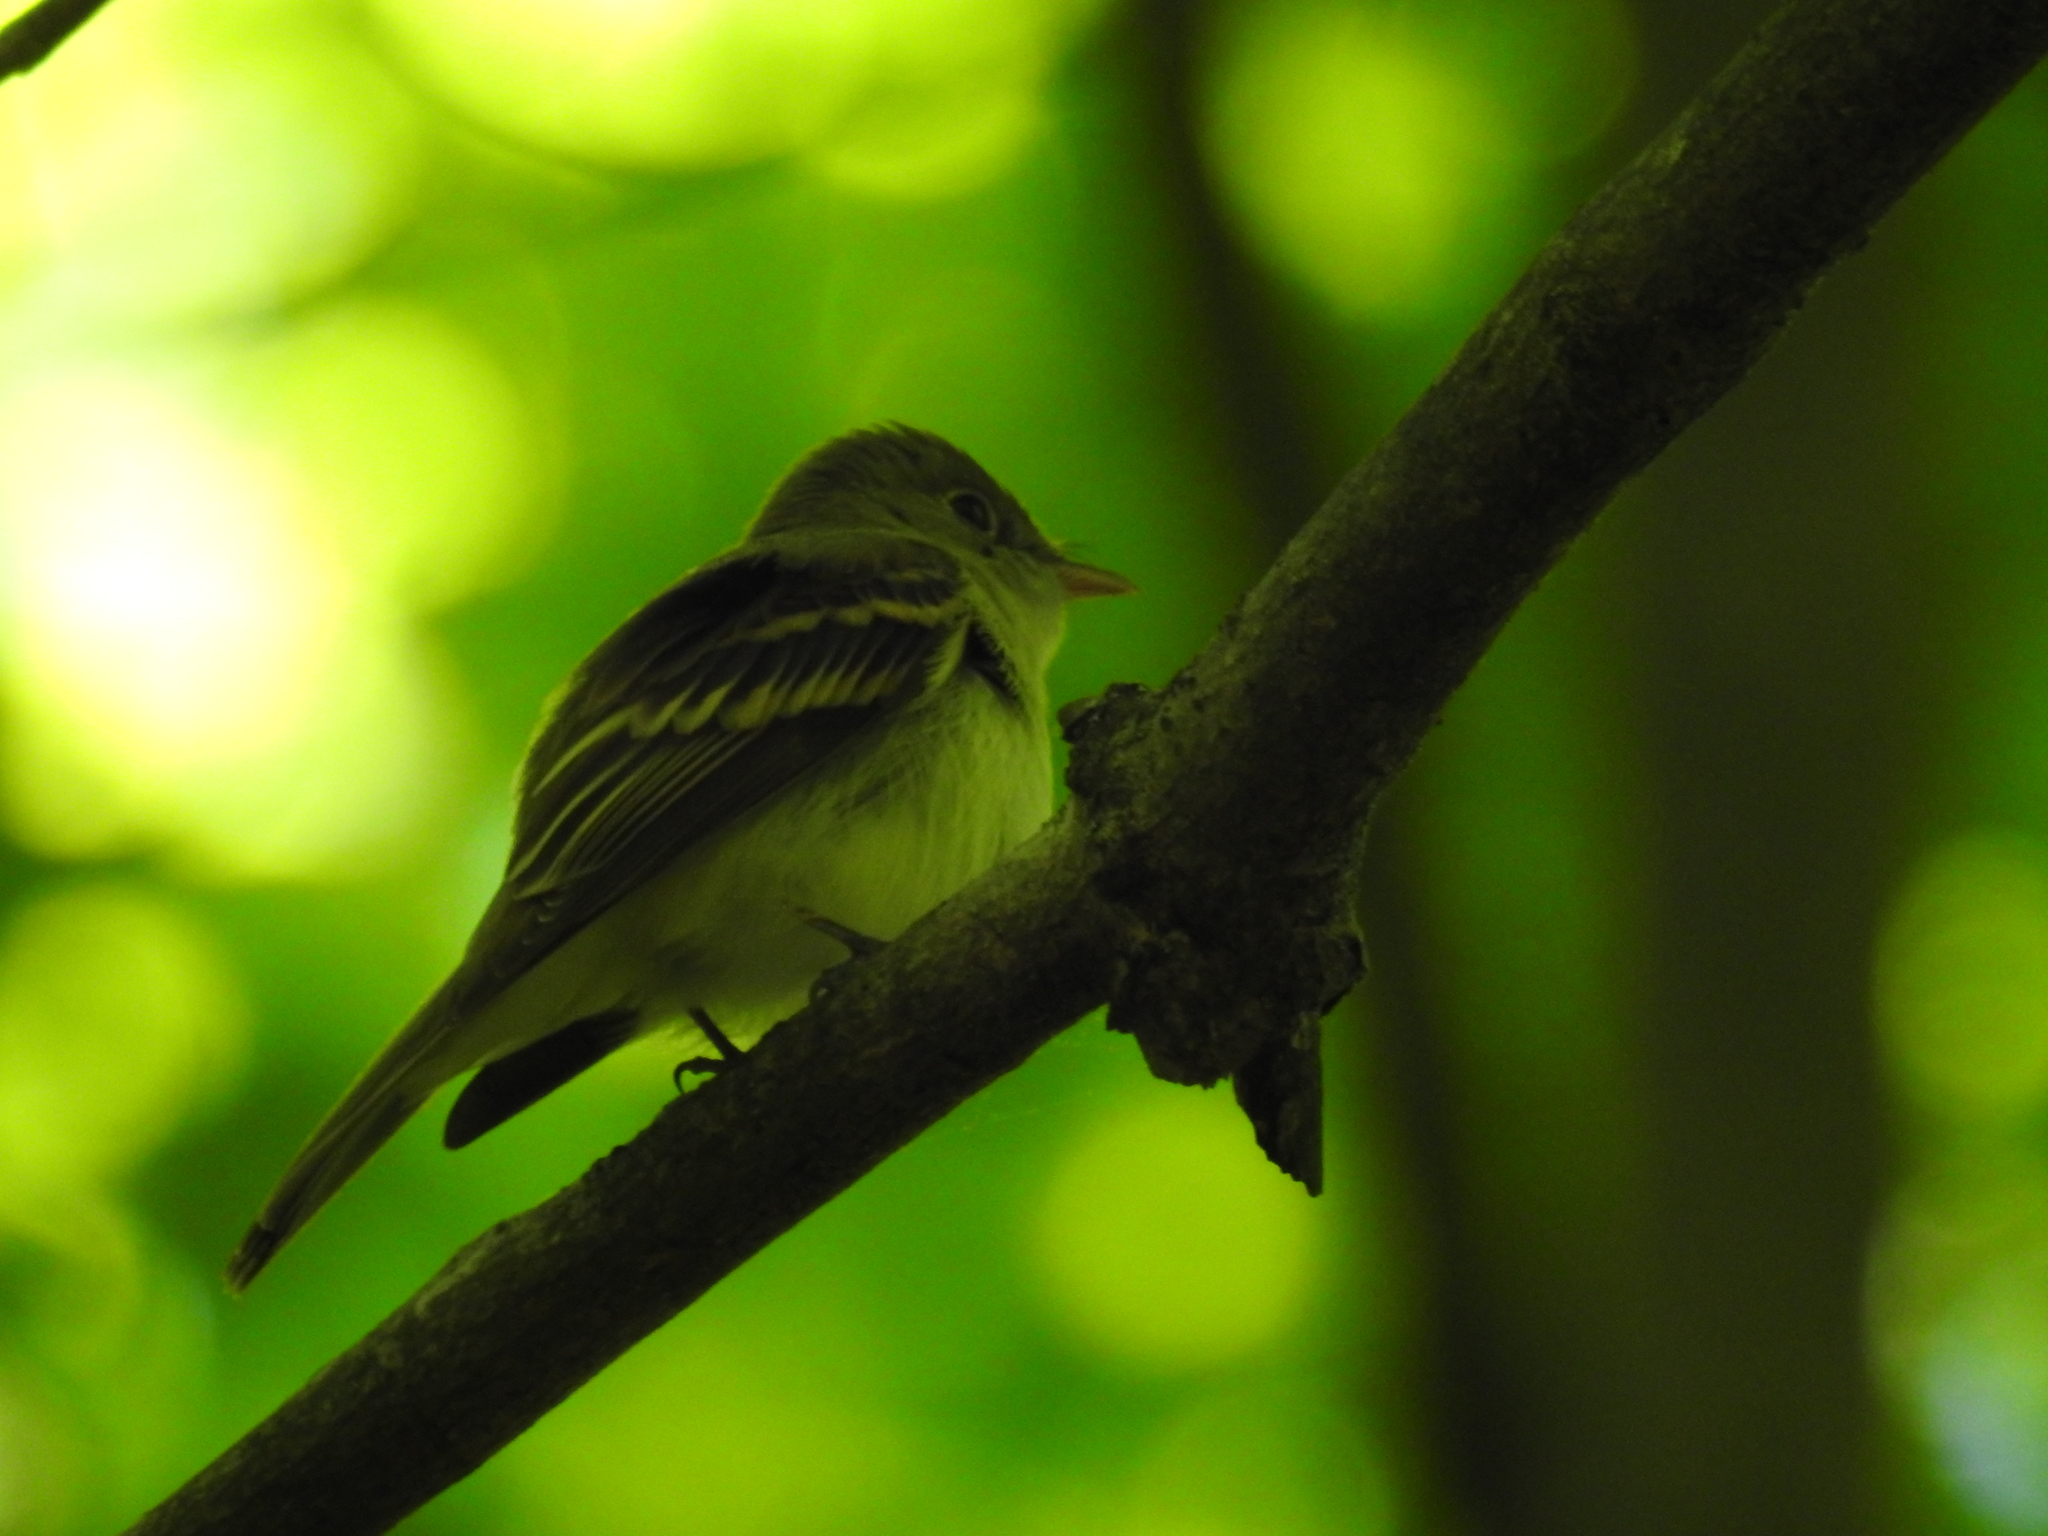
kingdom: Animalia
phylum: Chordata
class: Aves
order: Passeriformes
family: Tyrannidae
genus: Empidonax
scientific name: Empidonax virescens
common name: Acadian flycatcher
